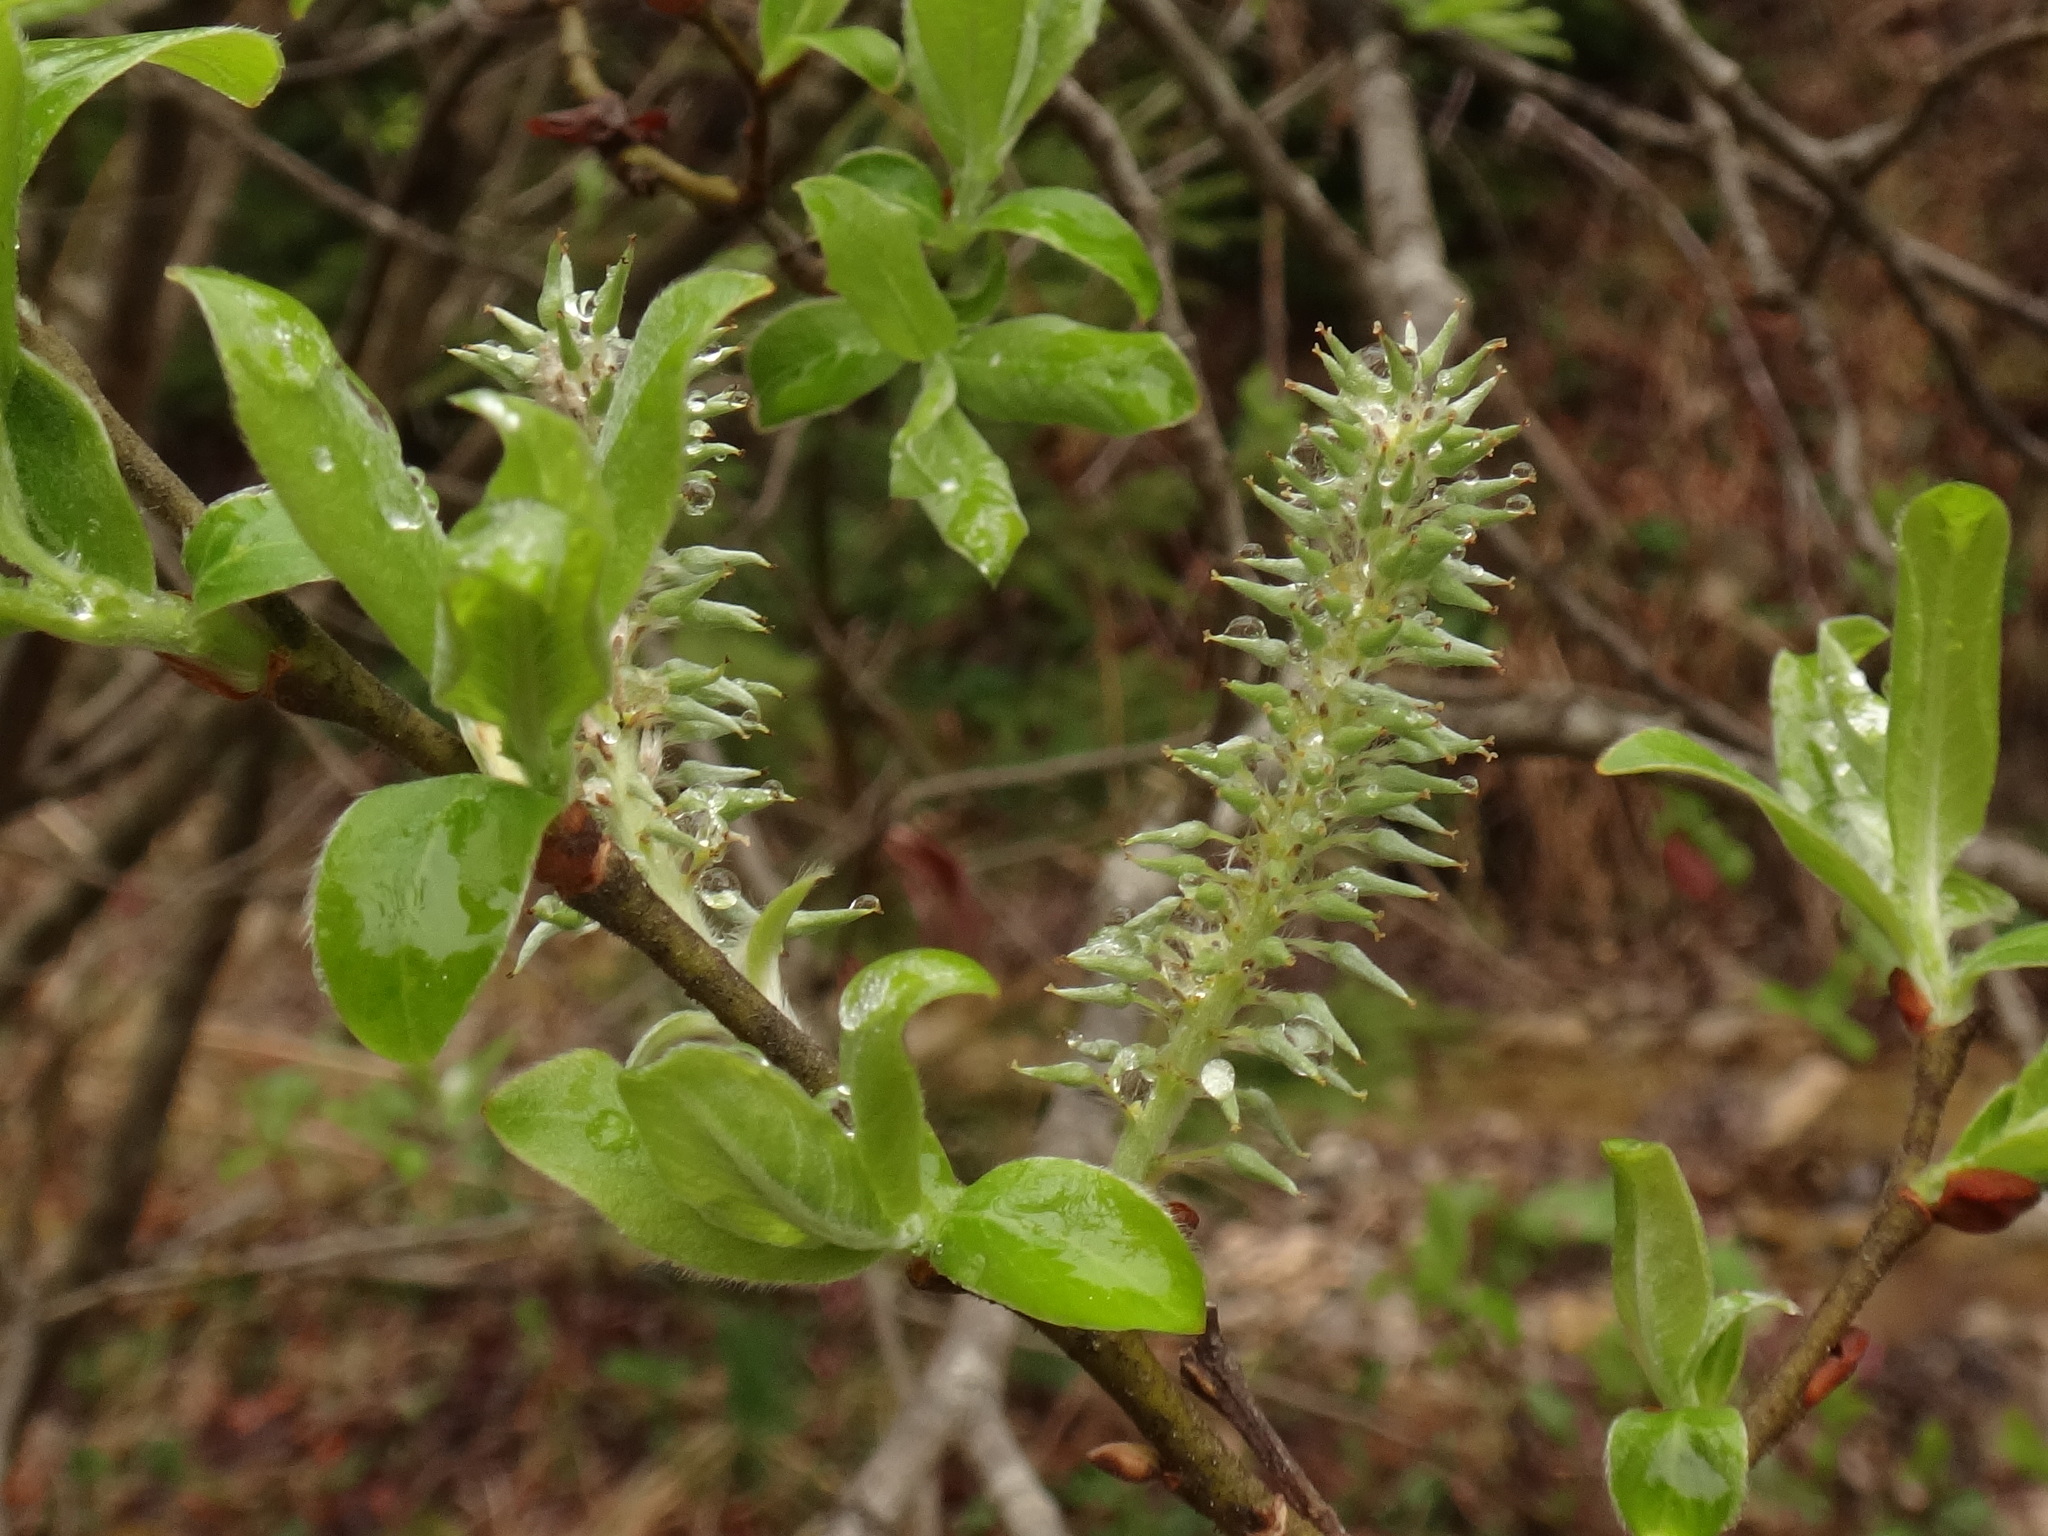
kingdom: Plantae
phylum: Tracheophyta
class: Magnoliopsida
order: Malpighiales
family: Salicaceae
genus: Salix
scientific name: Salix appendiculata
